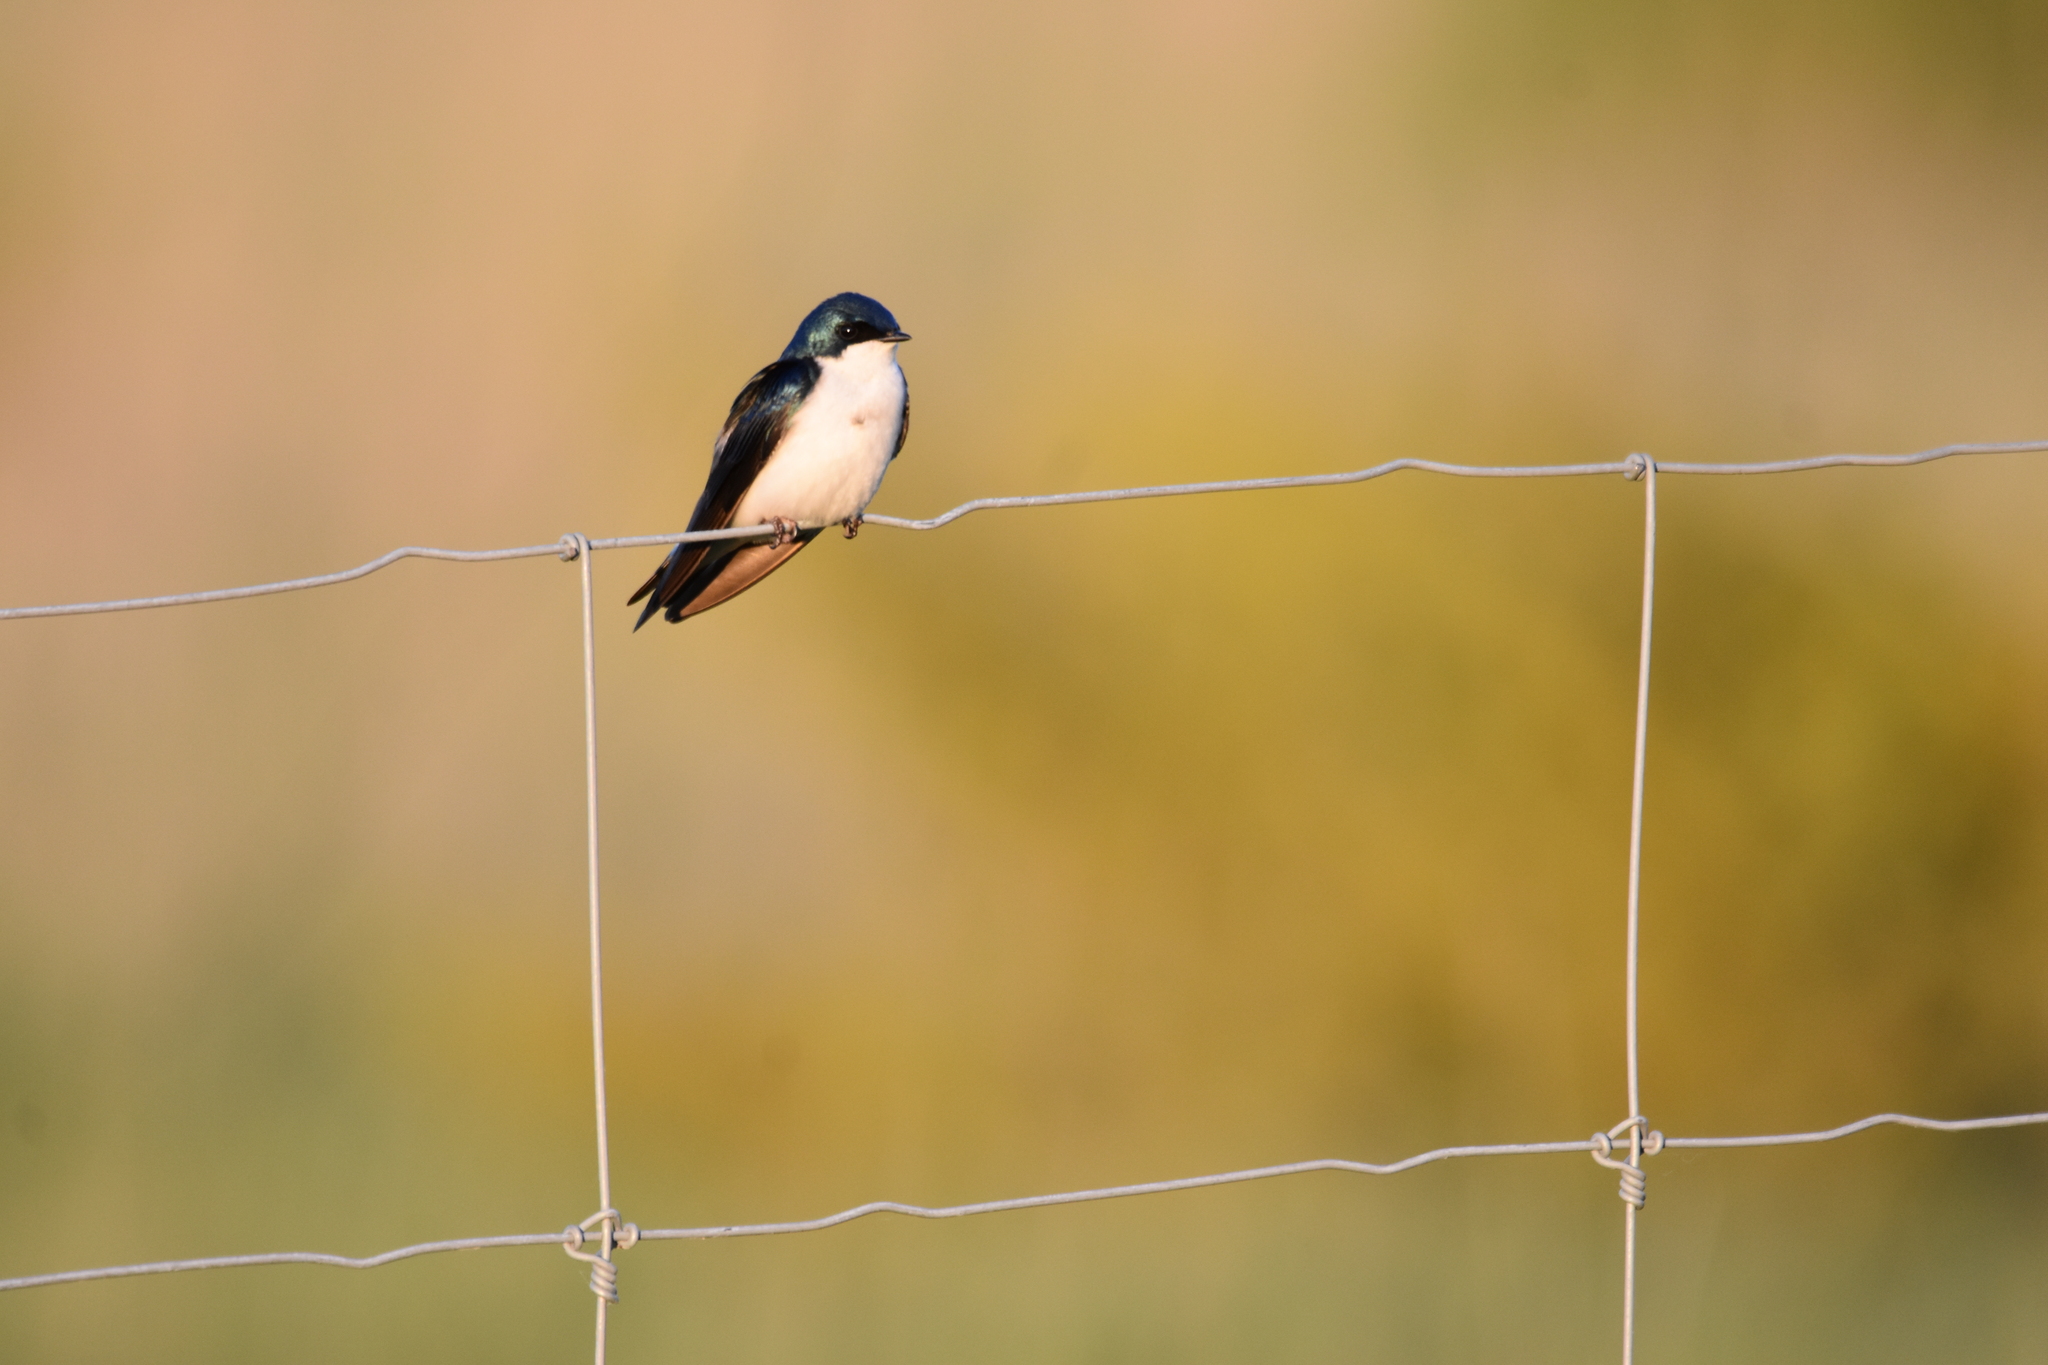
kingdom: Animalia
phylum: Chordata
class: Aves
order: Passeriformes
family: Hirundinidae
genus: Tachycineta
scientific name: Tachycineta bicolor
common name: Tree swallow
